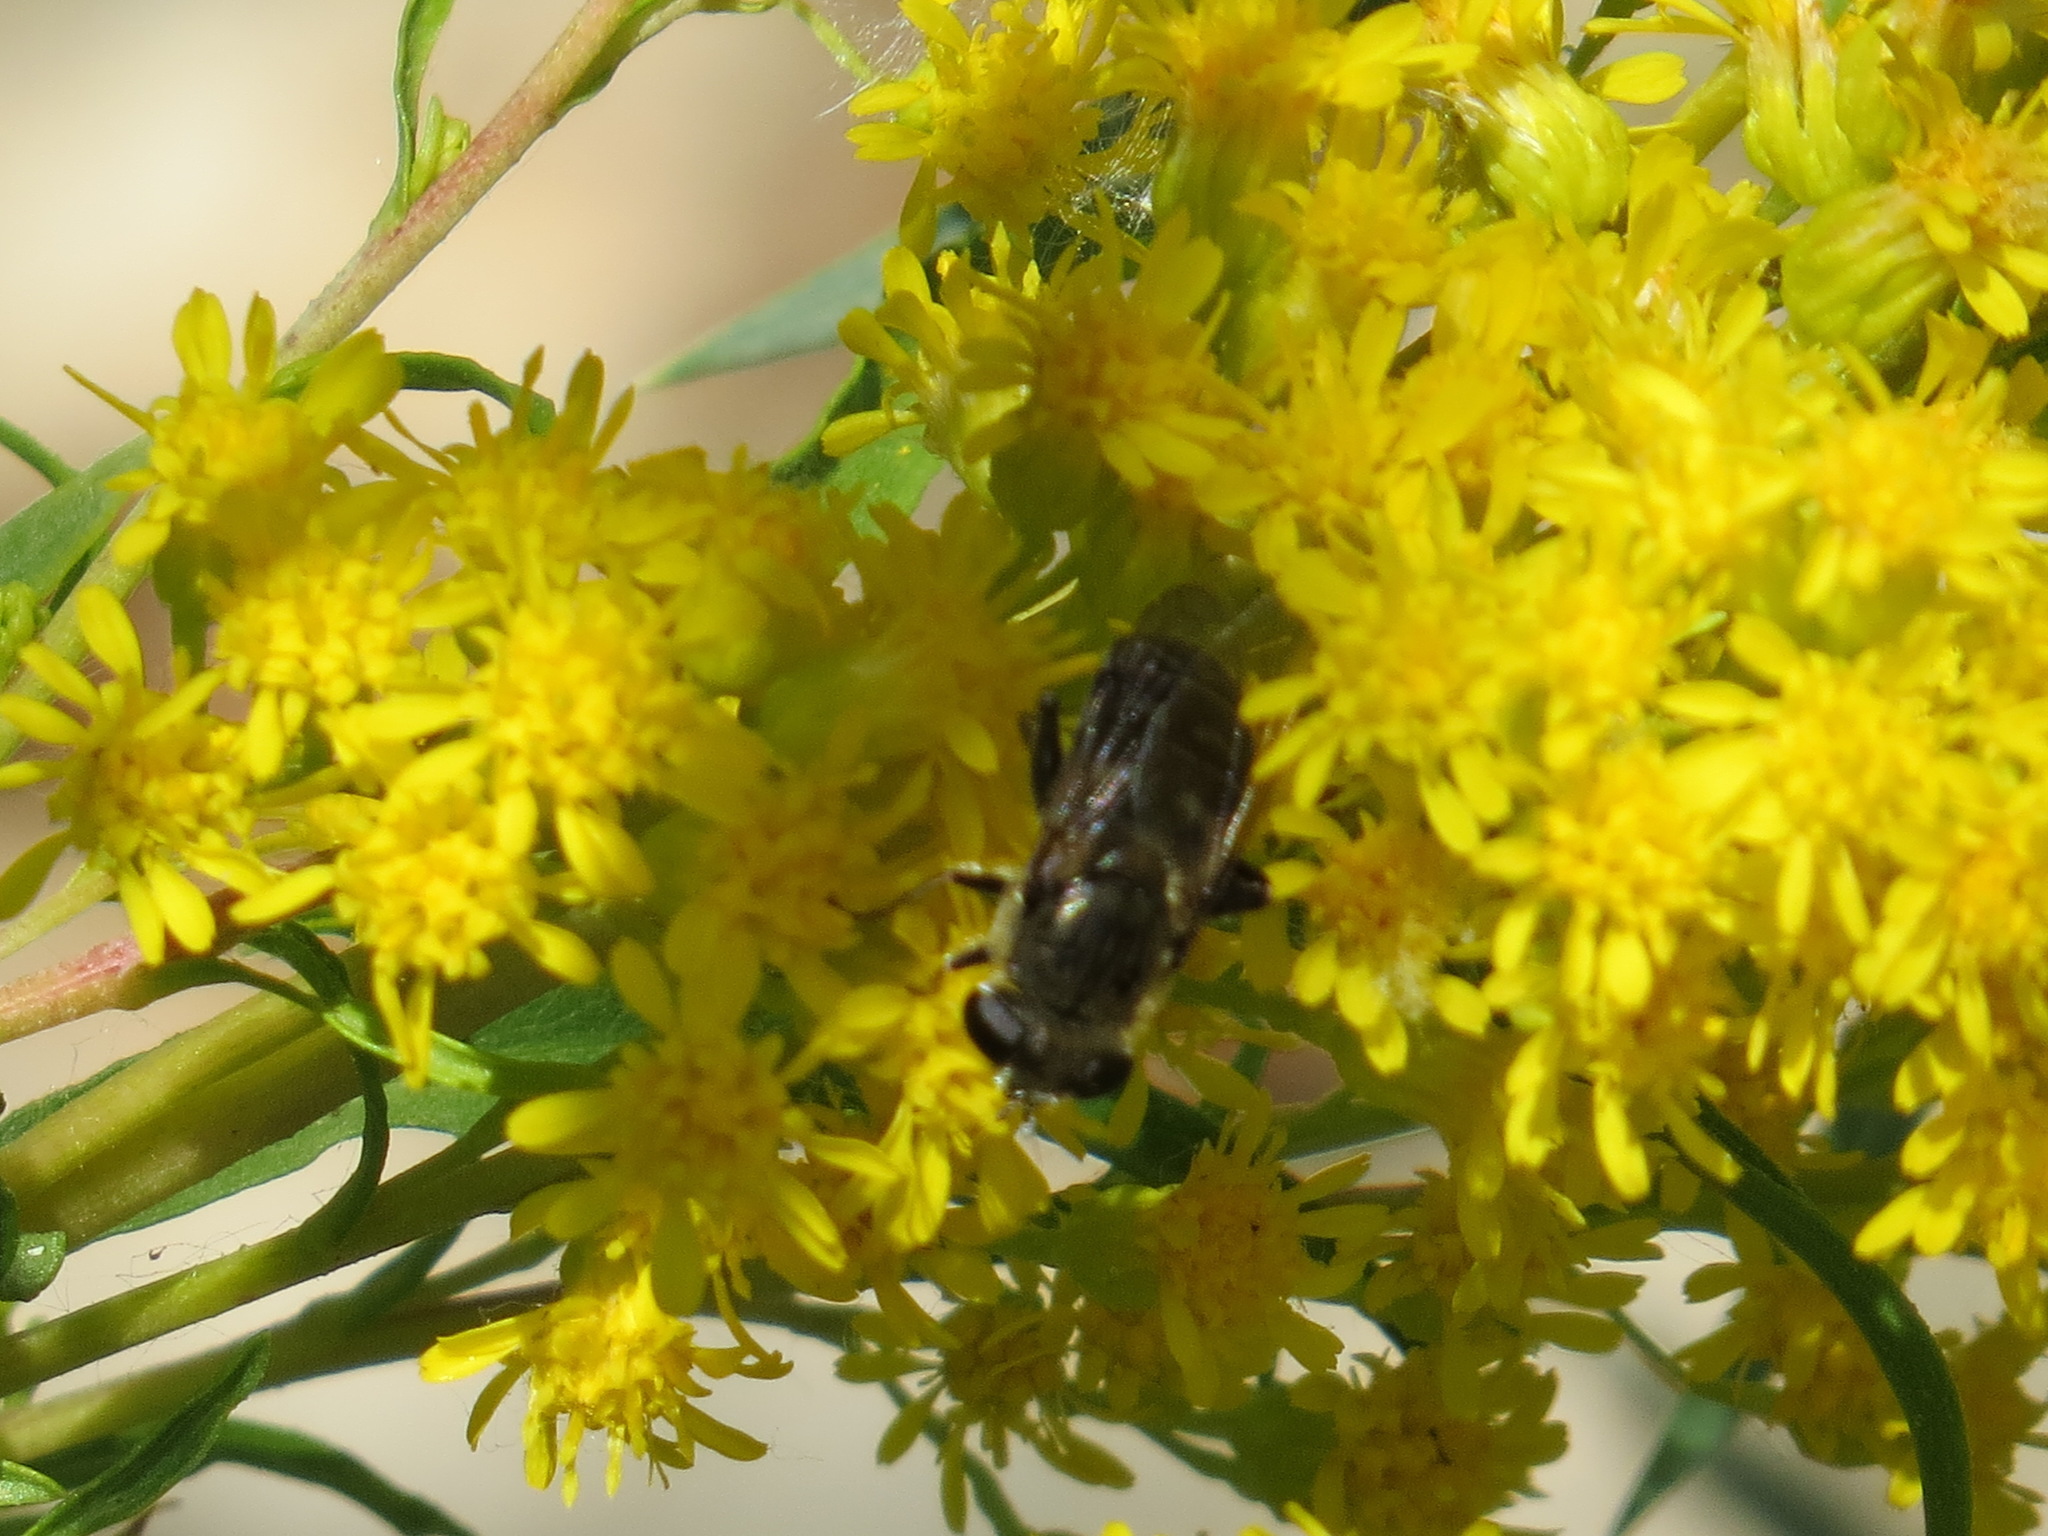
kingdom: Animalia
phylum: Arthropoda
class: Insecta
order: Diptera
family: Syrphidae
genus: Asemosyrphus
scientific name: Asemosyrphus polygrammus
